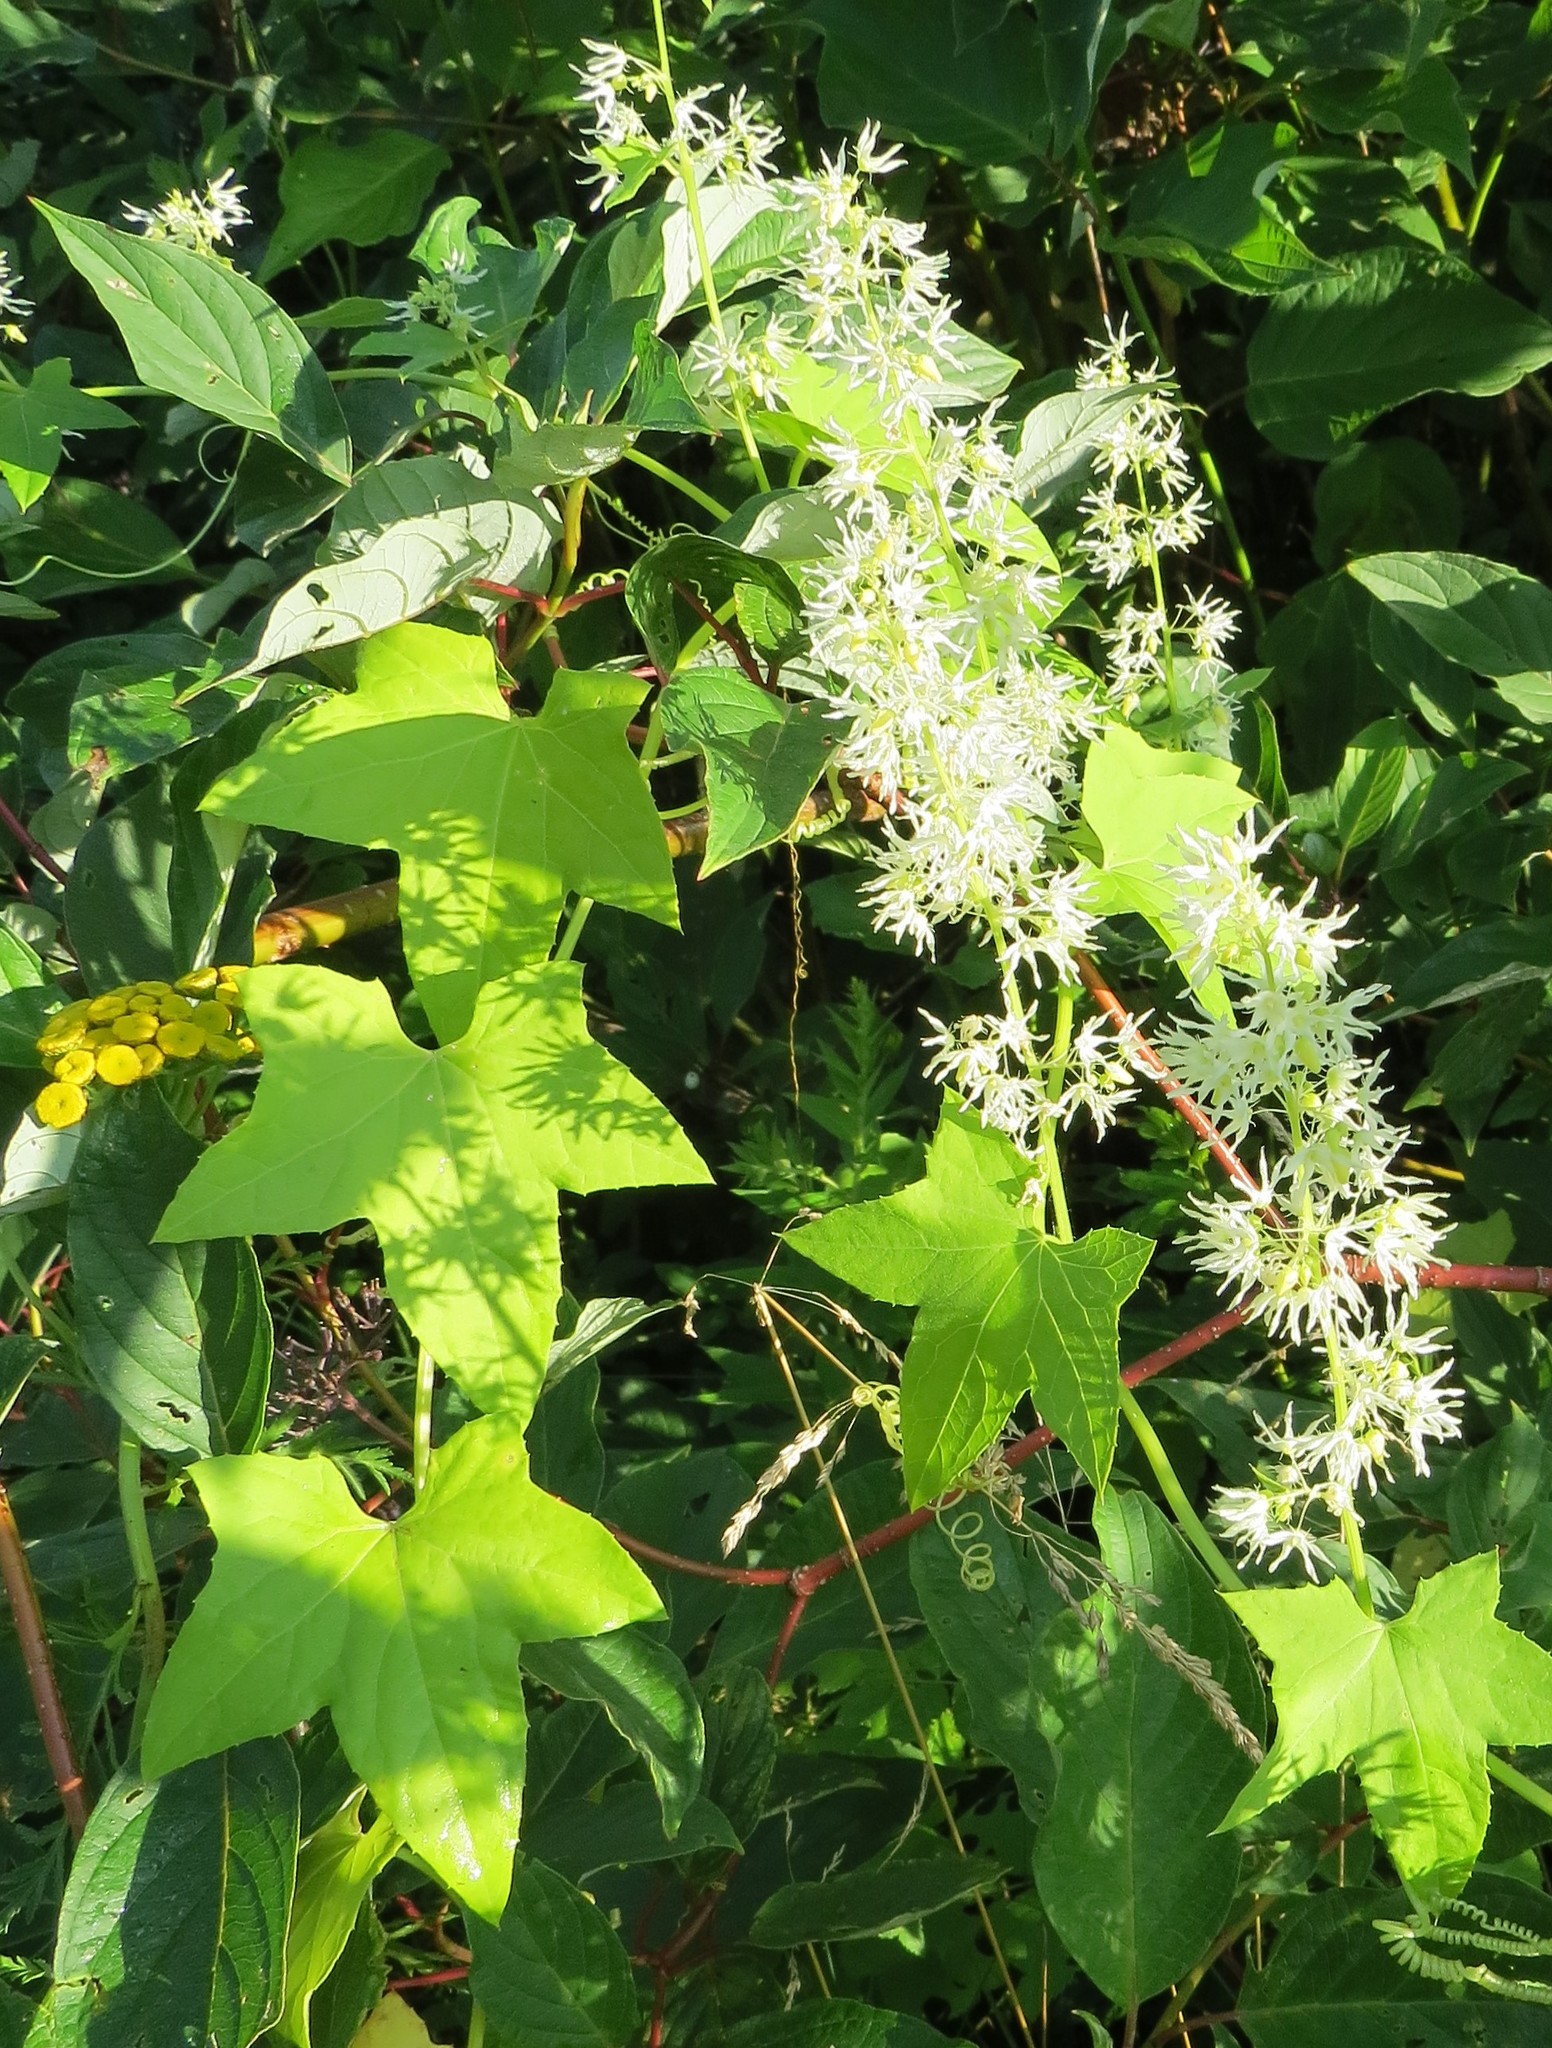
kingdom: Plantae
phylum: Tracheophyta
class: Magnoliopsida
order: Cucurbitales
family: Cucurbitaceae
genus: Echinocystis
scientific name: Echinocystis lobata
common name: Wild cucumber
